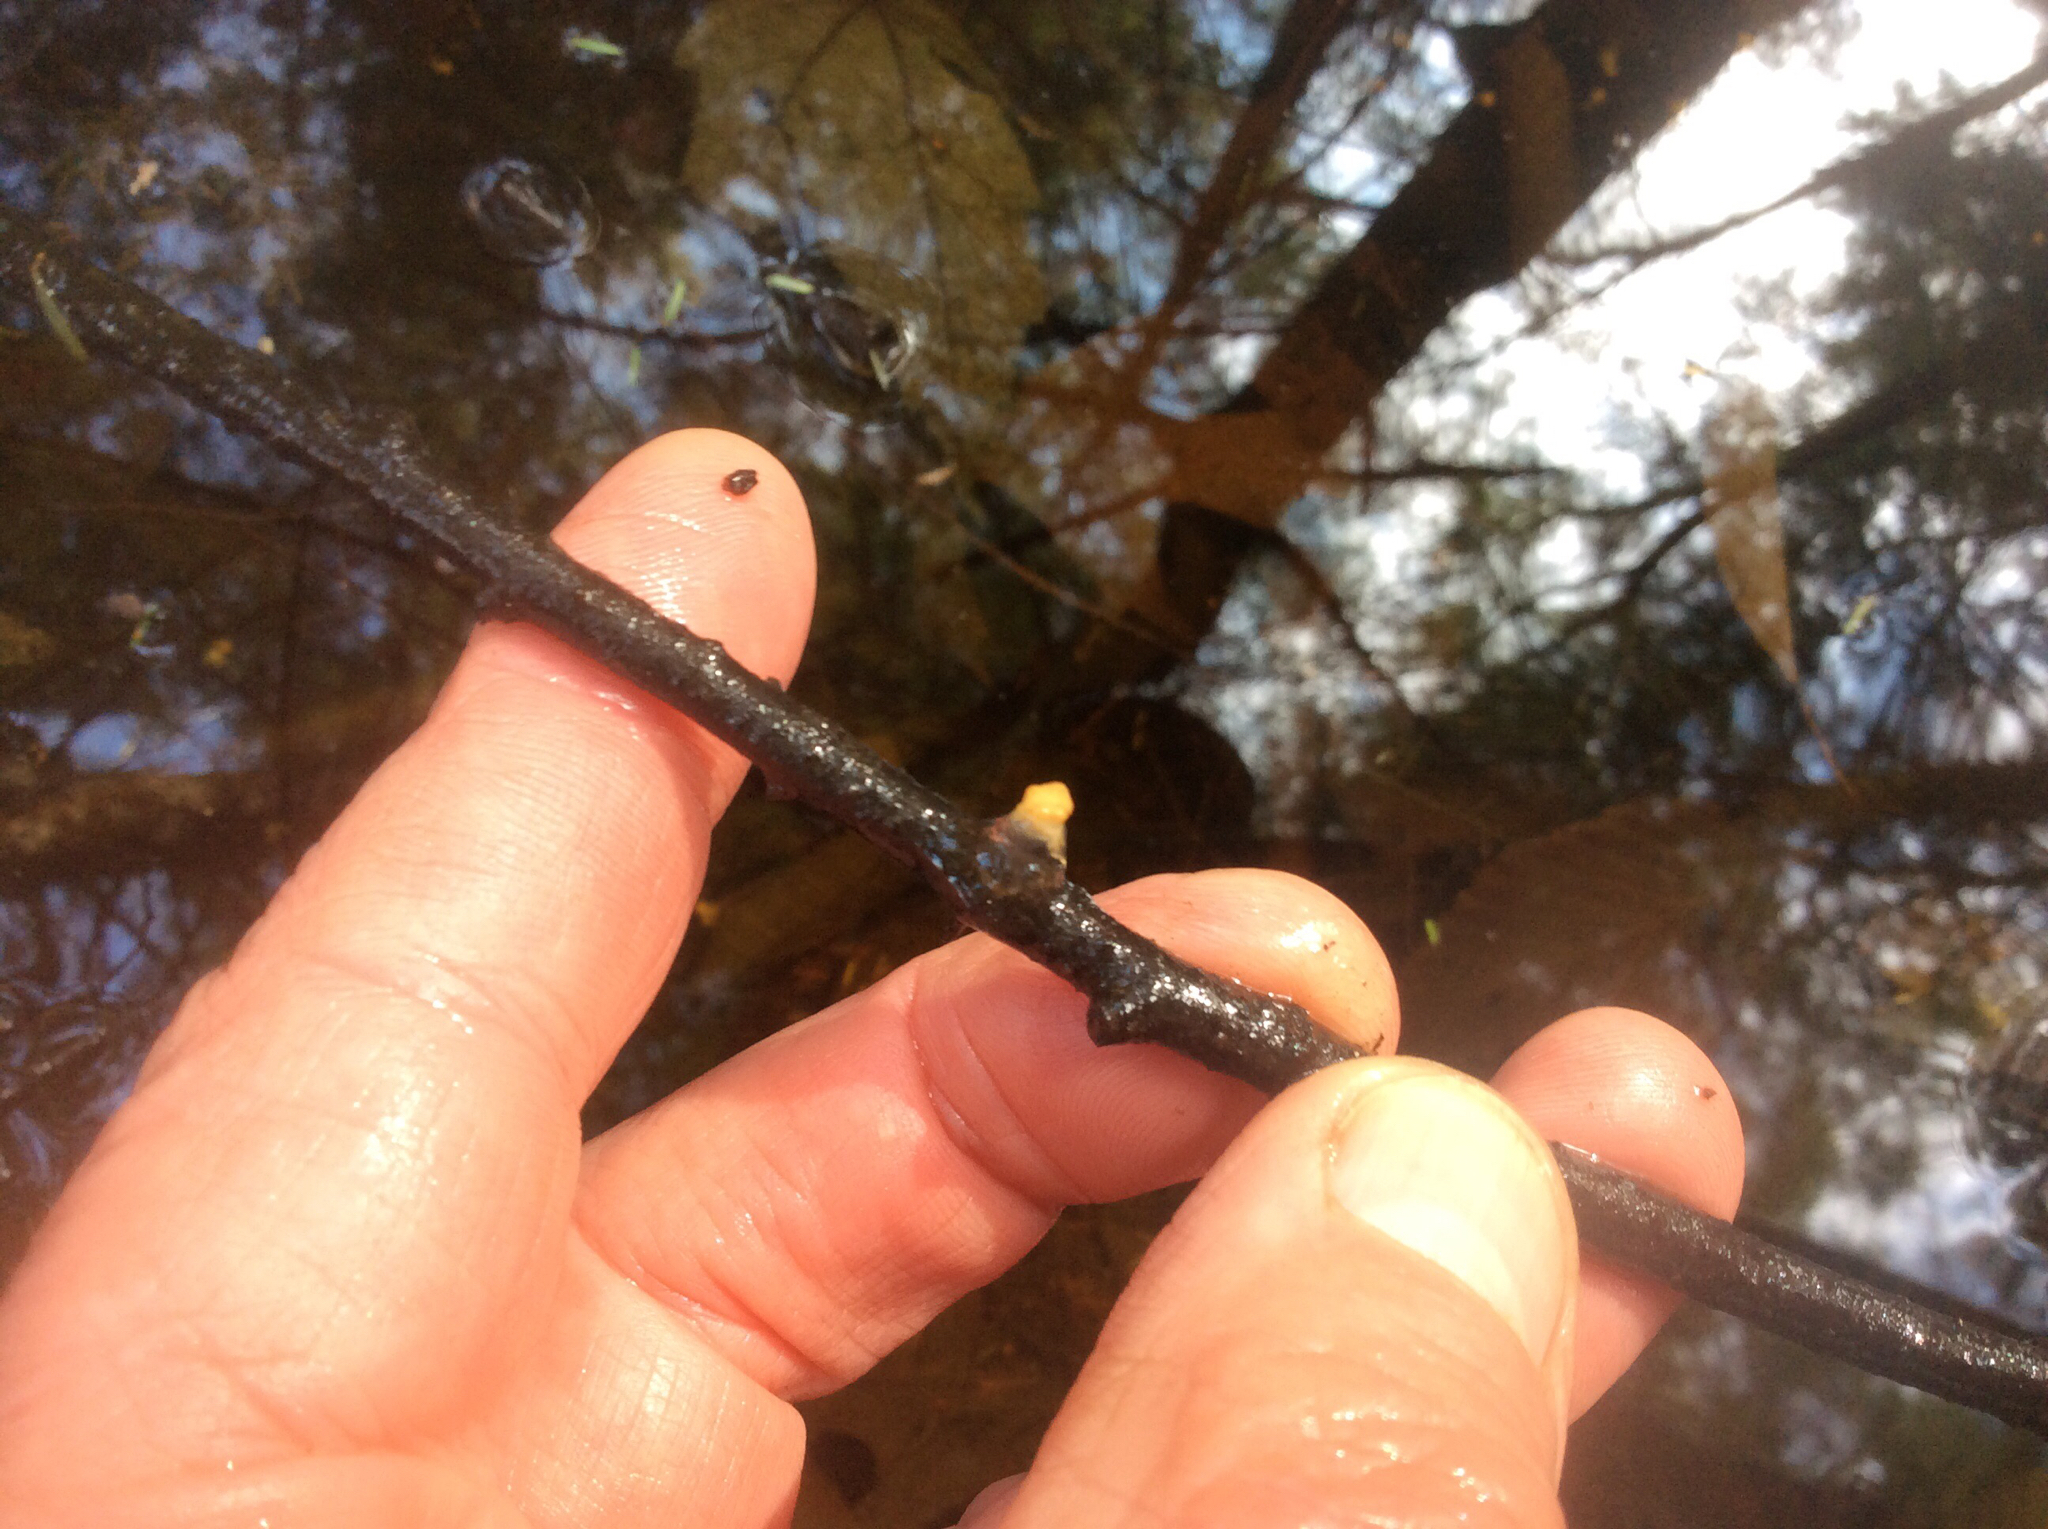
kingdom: Animalia
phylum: Chordata
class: Amphibia
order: Caudata
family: Ambystomatidae
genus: Ambystoma
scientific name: Ambystoma
